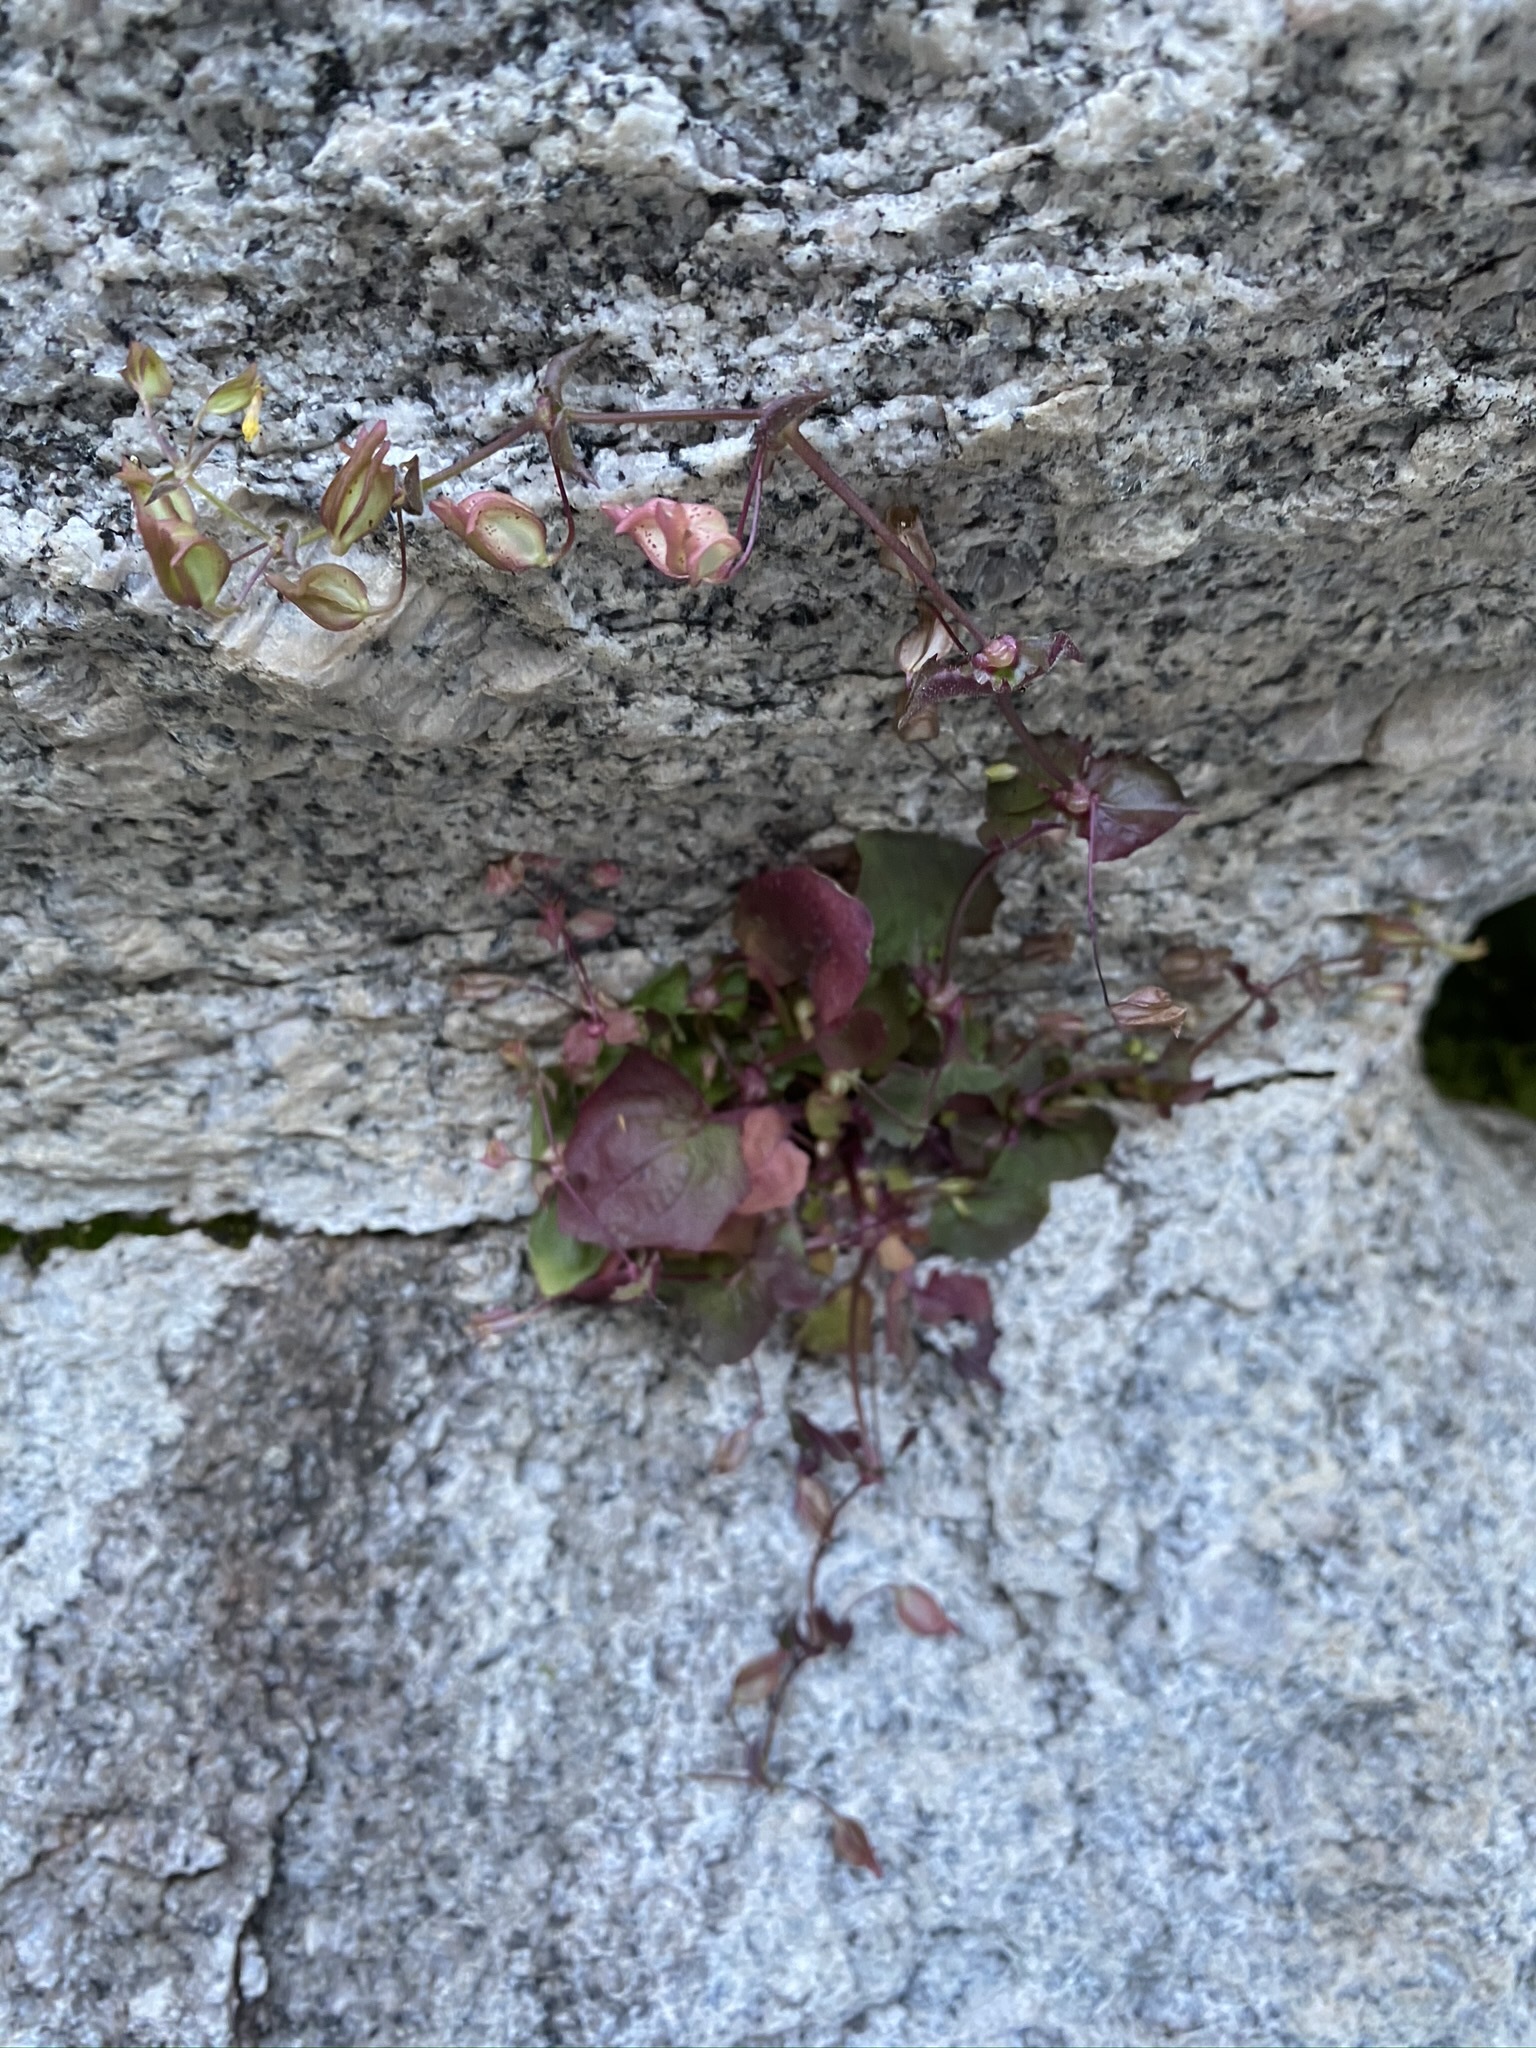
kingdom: Plantae
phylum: Tracheophyta
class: Magnoliopsida
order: Lamiales
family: Phrymaceae
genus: Erythranthe
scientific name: Erythranthe angulosa
